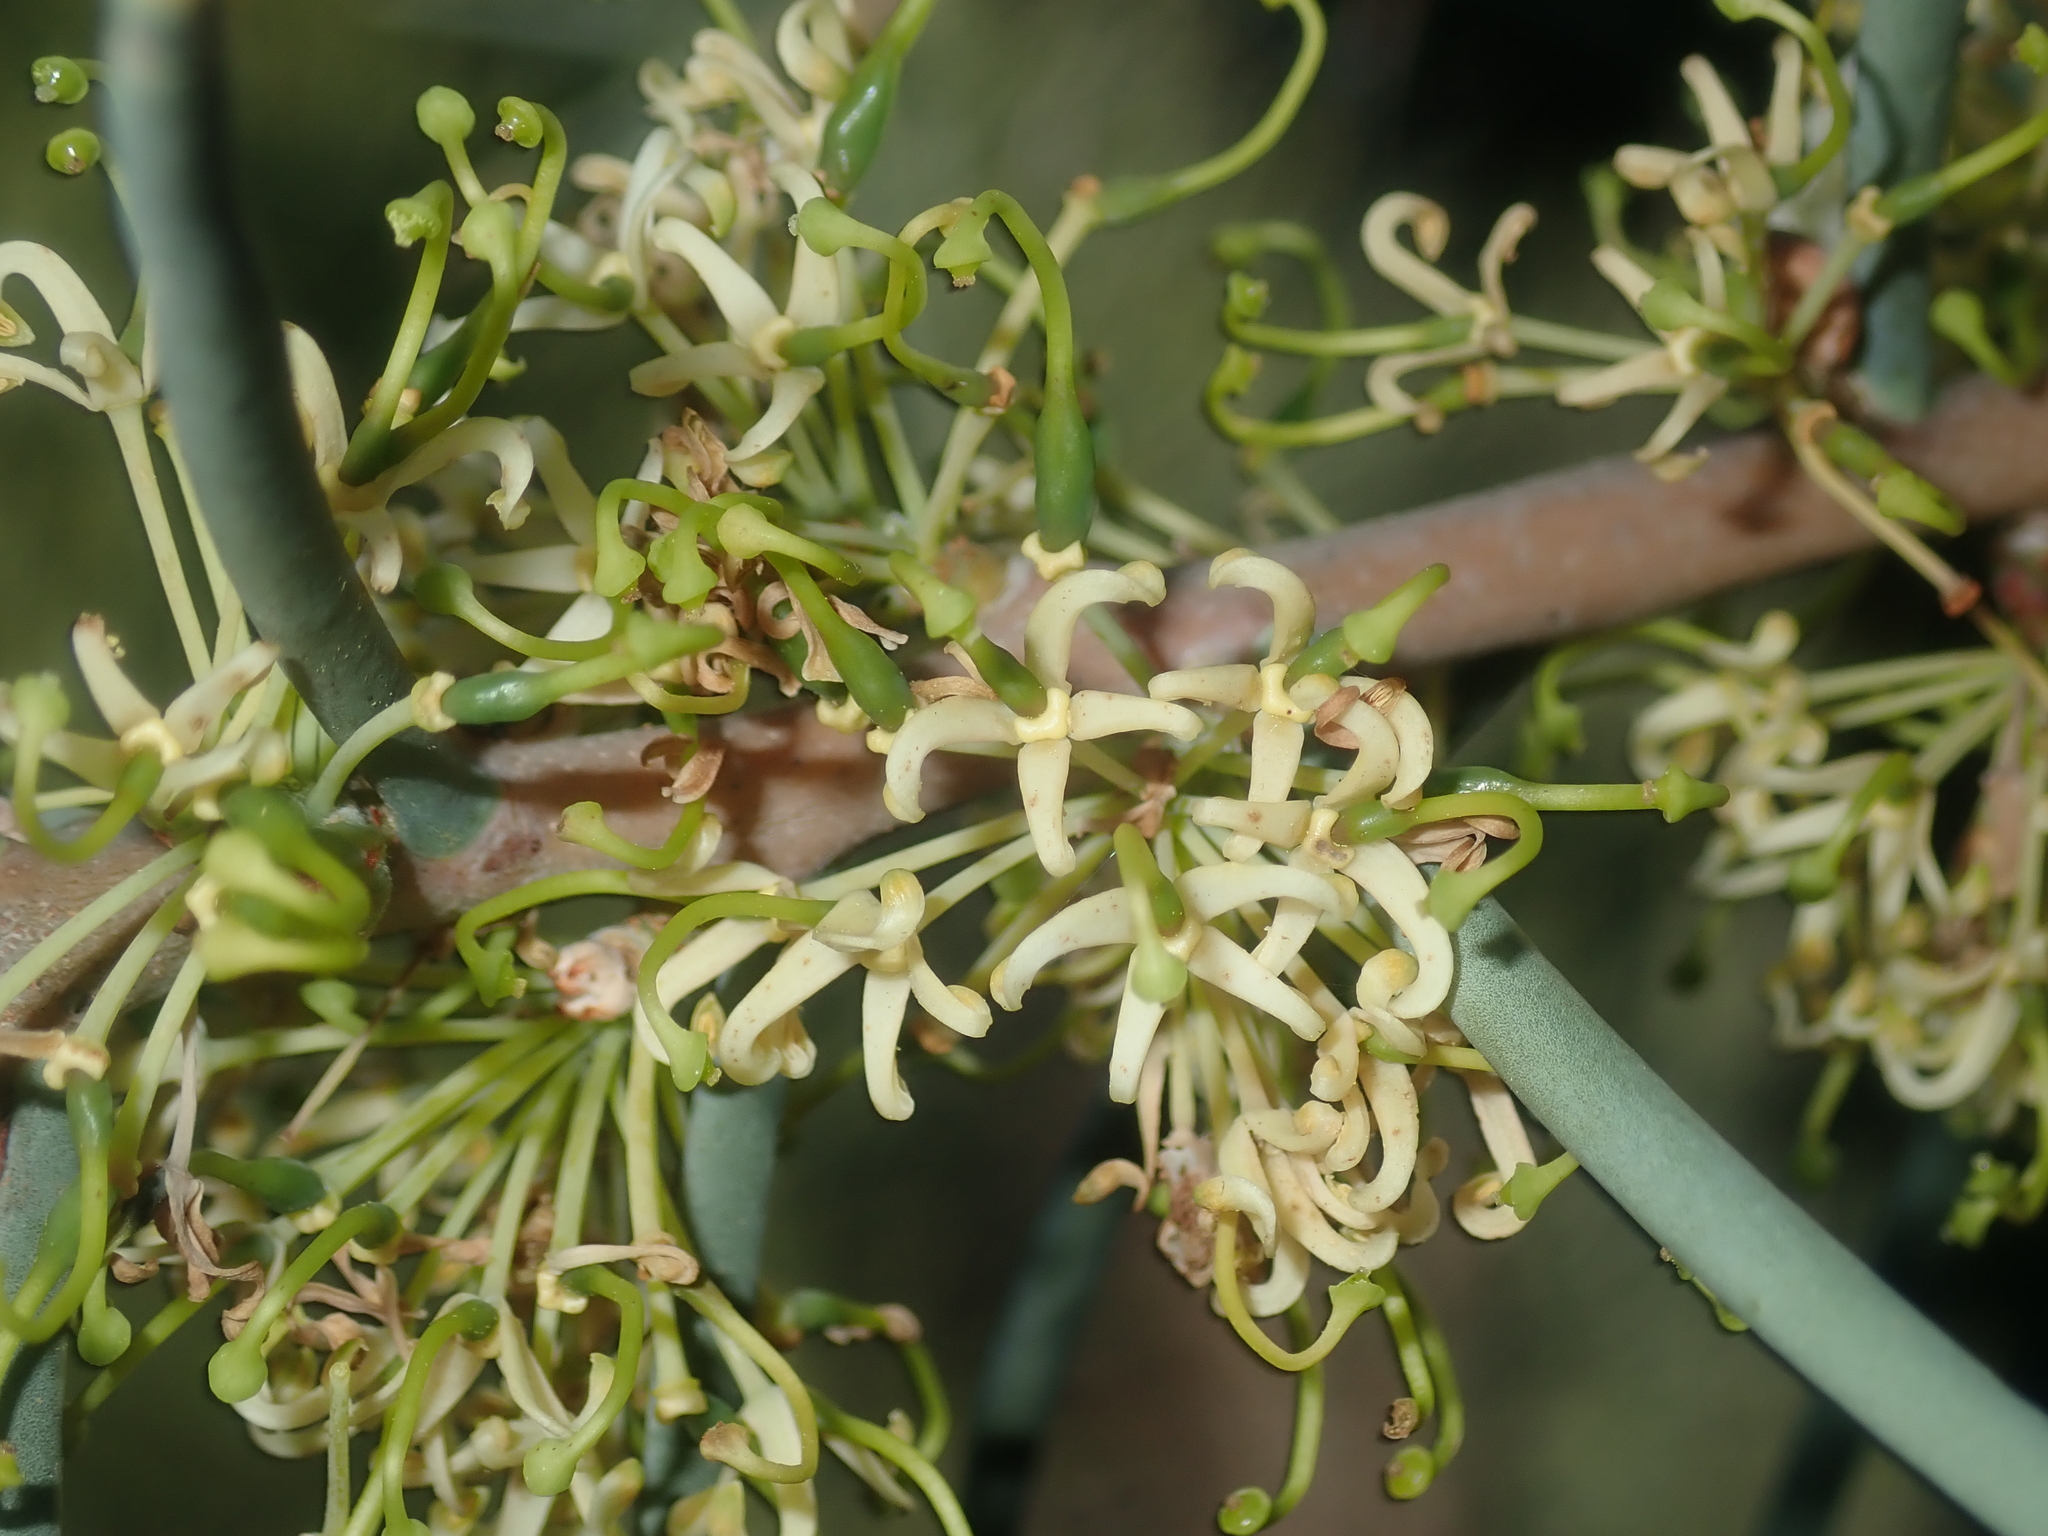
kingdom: Plantae
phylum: Tracheophyta
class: Magnoliopsida
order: Proteales
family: Proteaceae
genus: Hakea
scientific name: Hakea recurva
